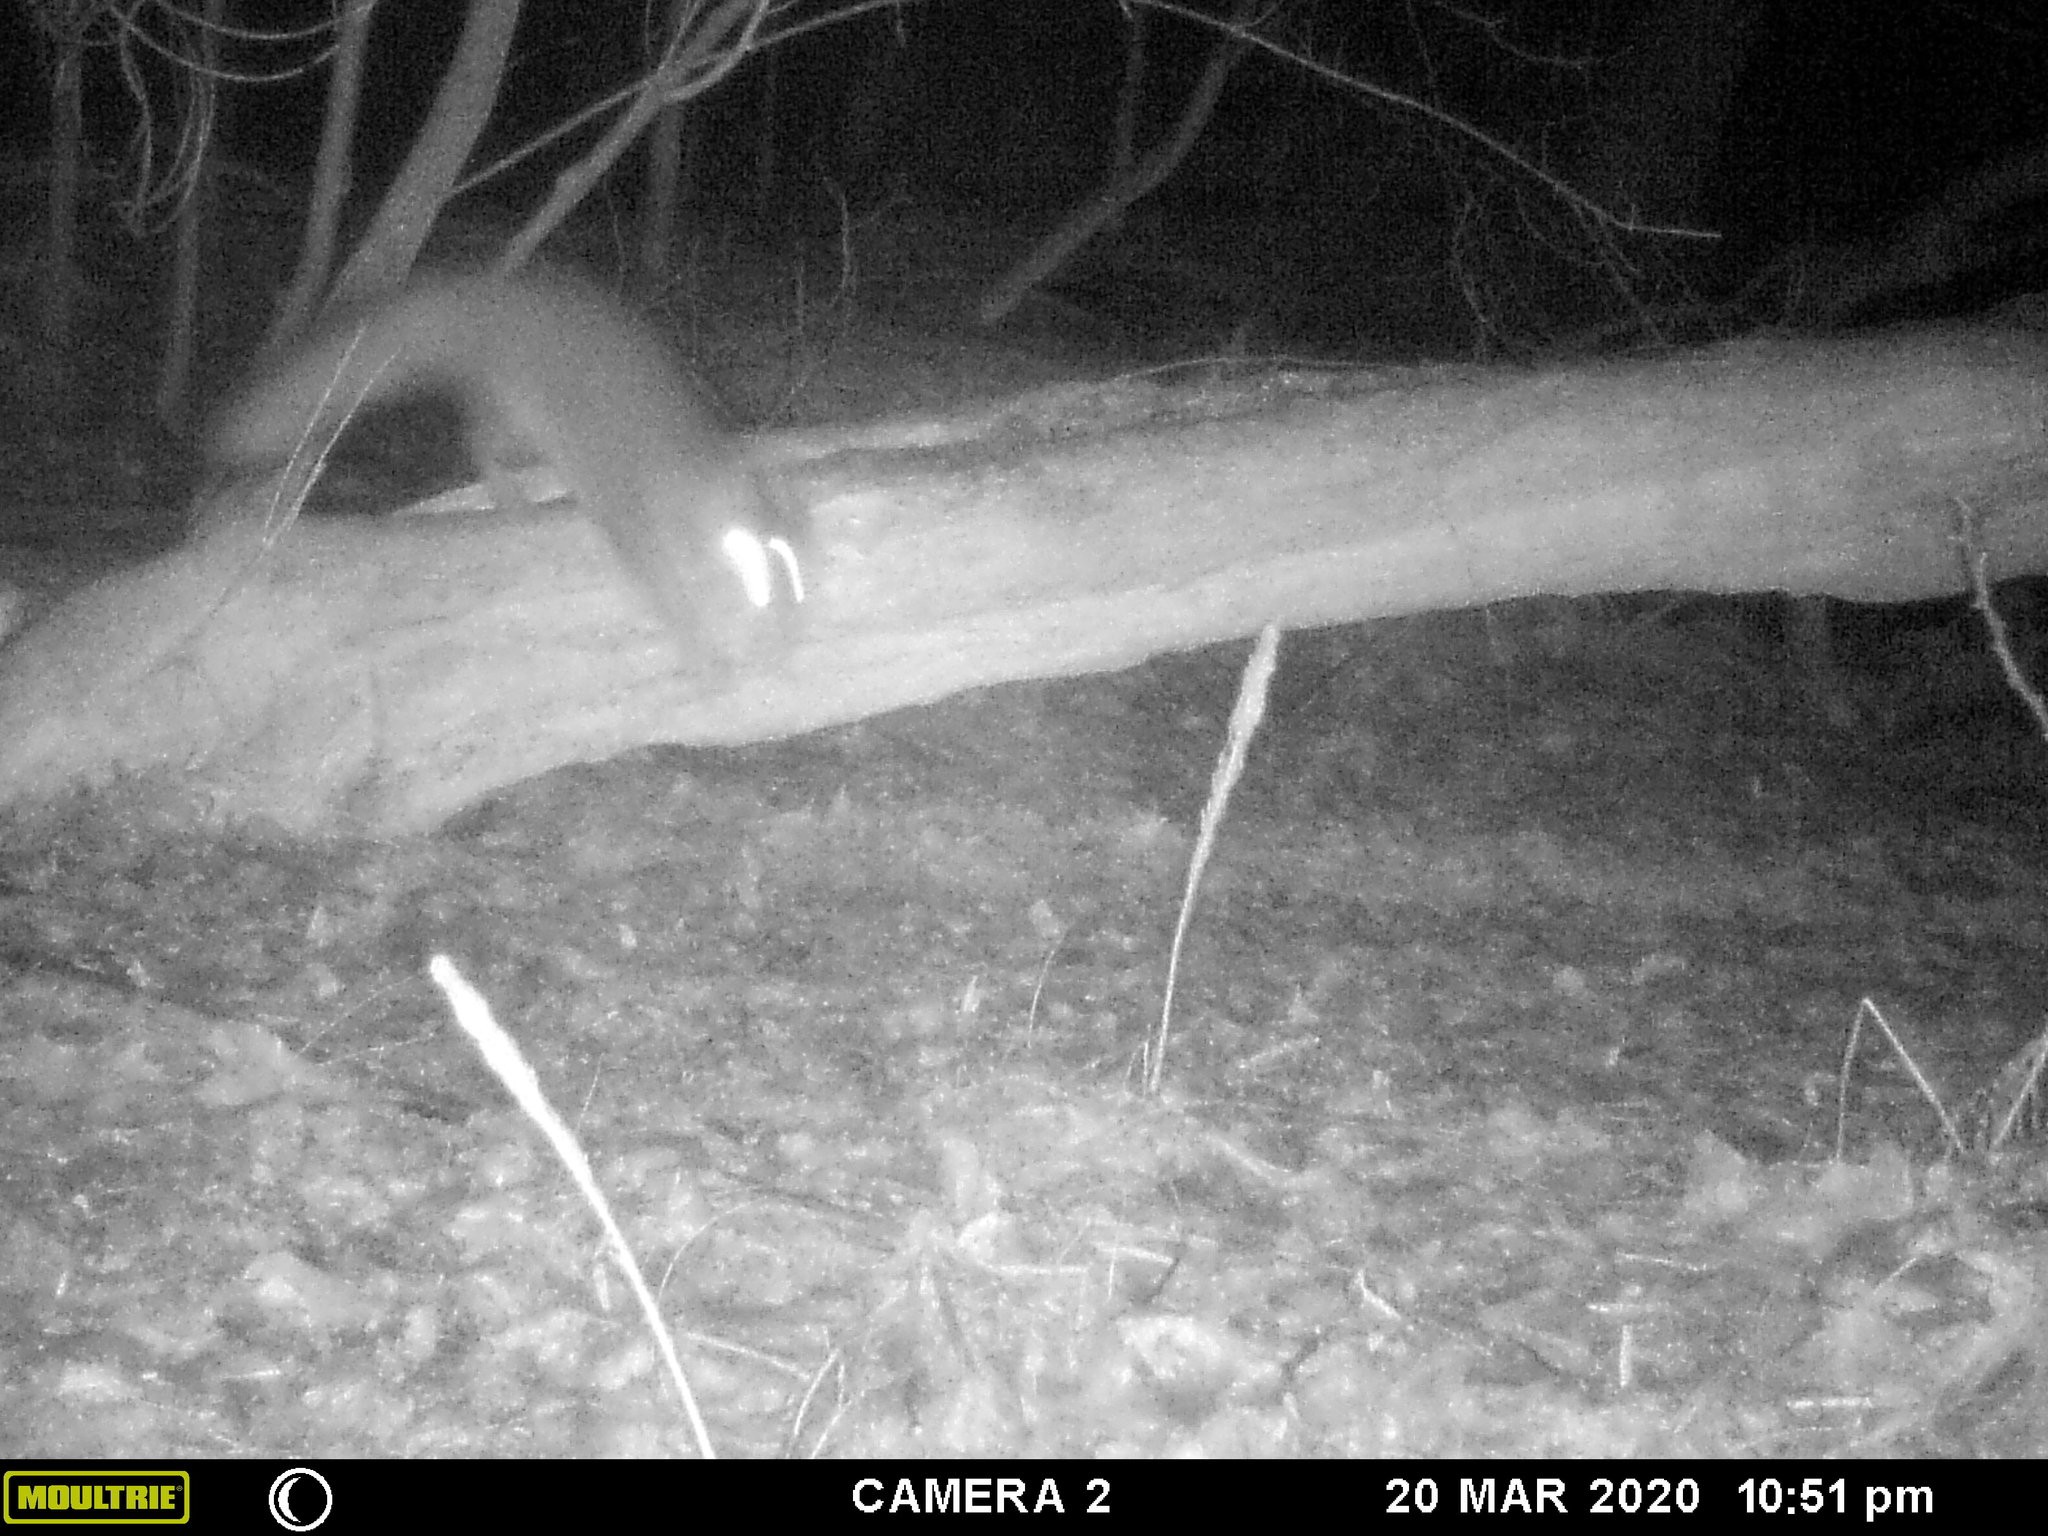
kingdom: Animalia
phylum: Chordata
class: Mammalia
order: Carnivora
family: Canidae
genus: Urocyon
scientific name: Urocyon cinereoargenteus
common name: Gray fox
